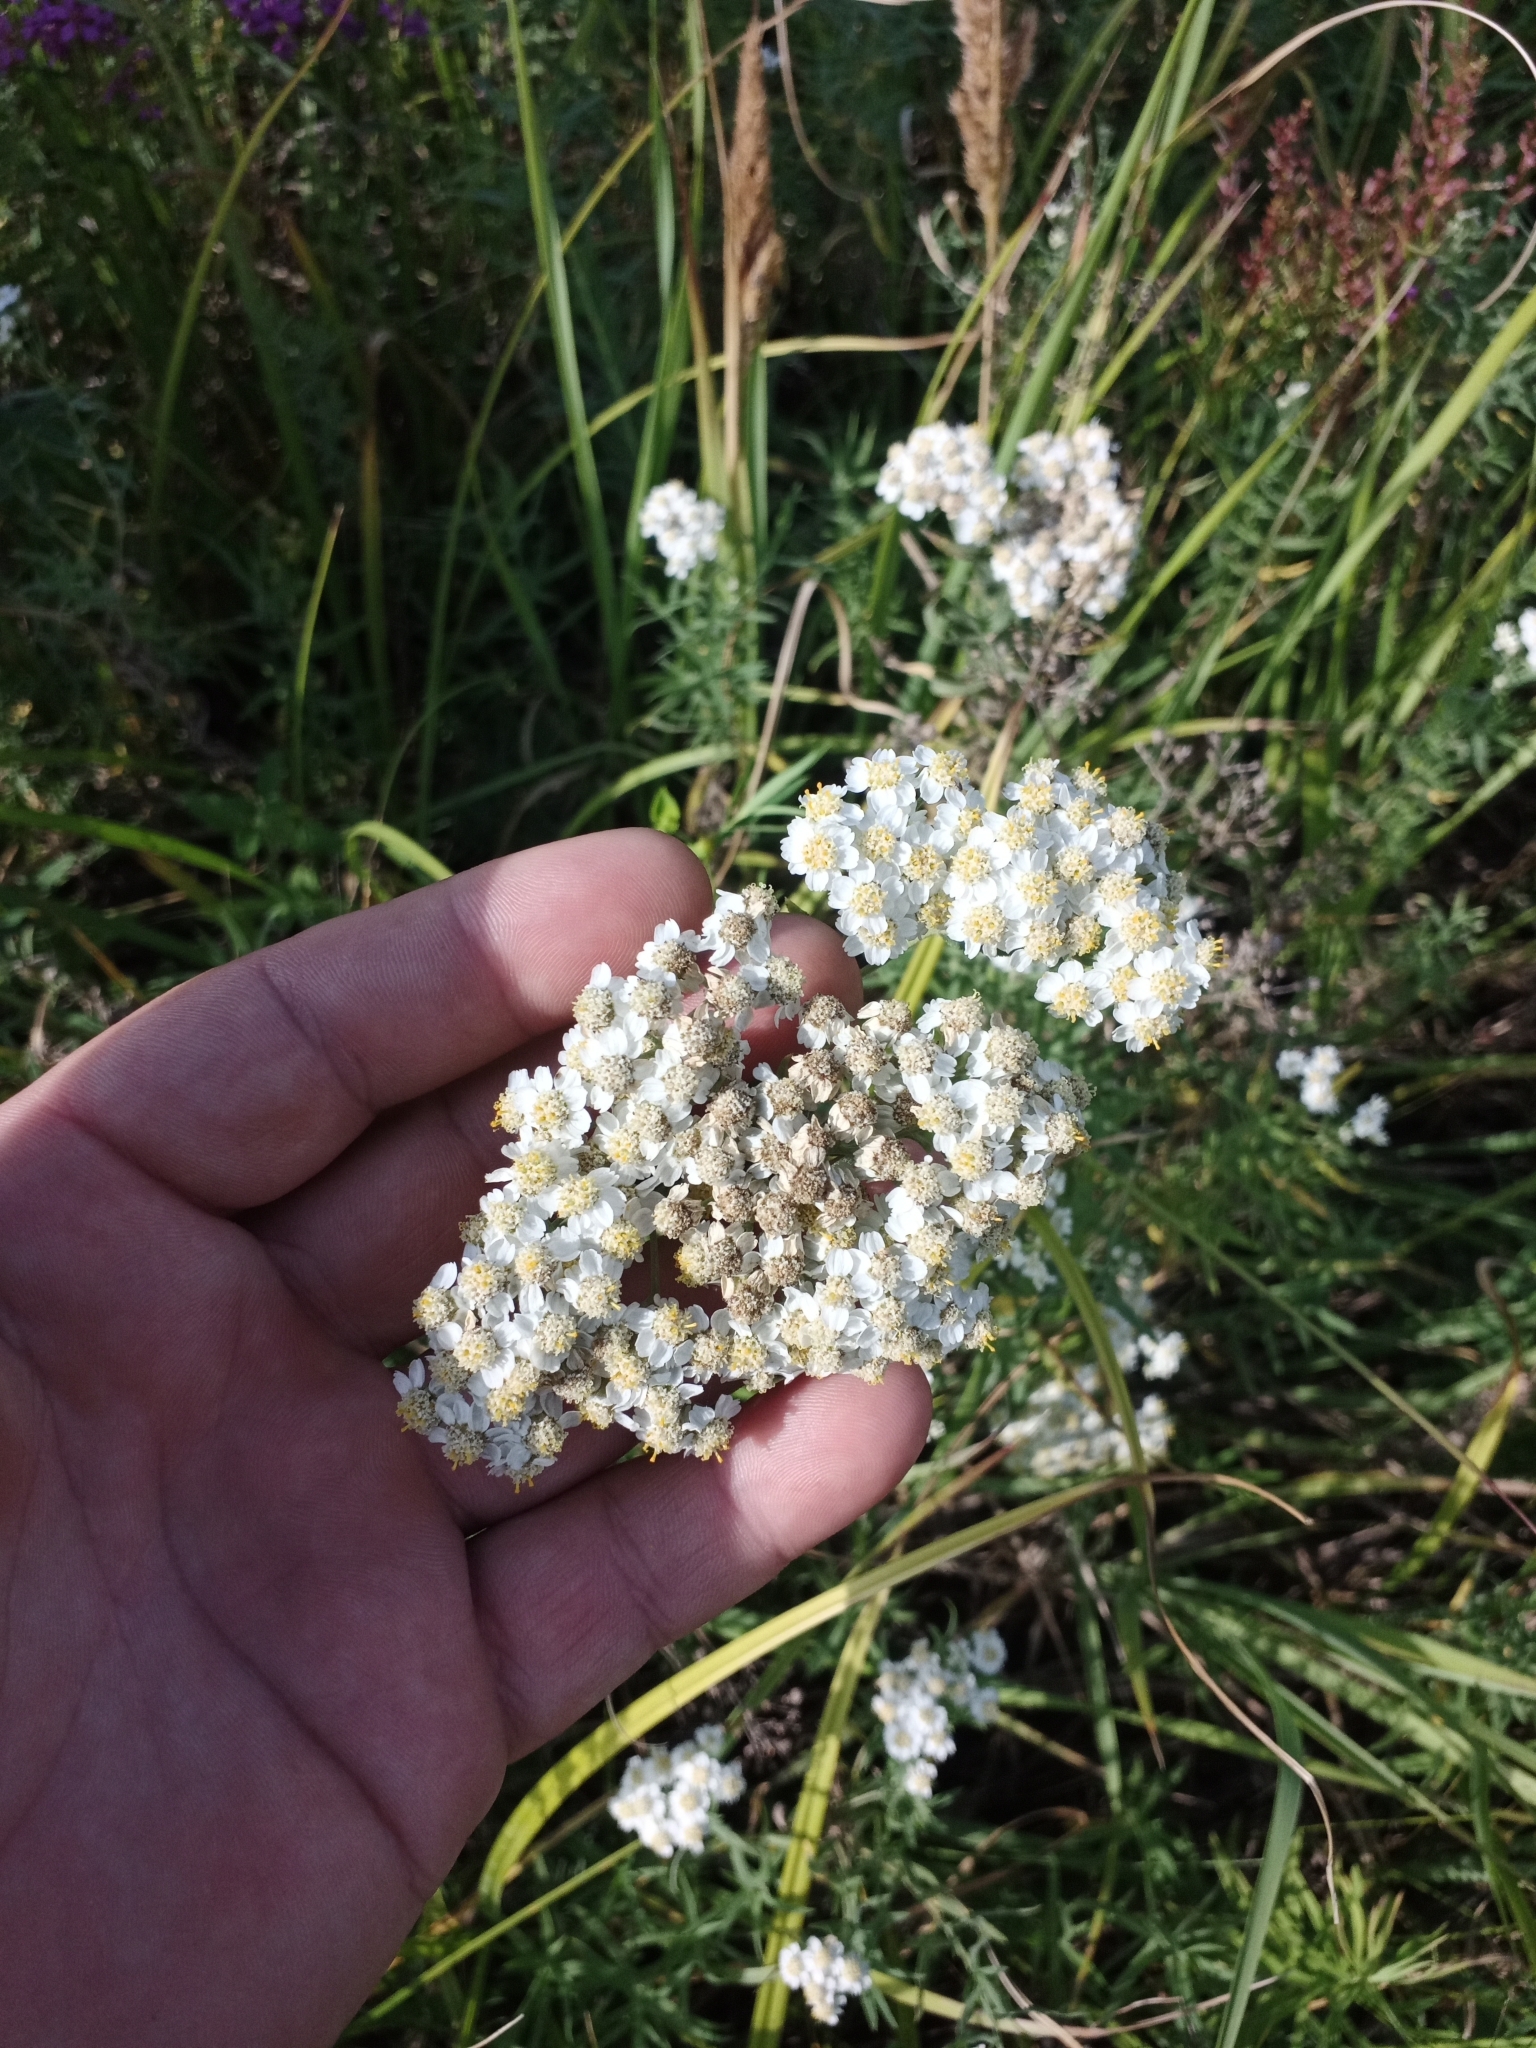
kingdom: Plantae
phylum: Tracheophyta
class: Magnoliopsida
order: Asterales
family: Asteraceae
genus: Achillea
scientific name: Achillea salicifolia
